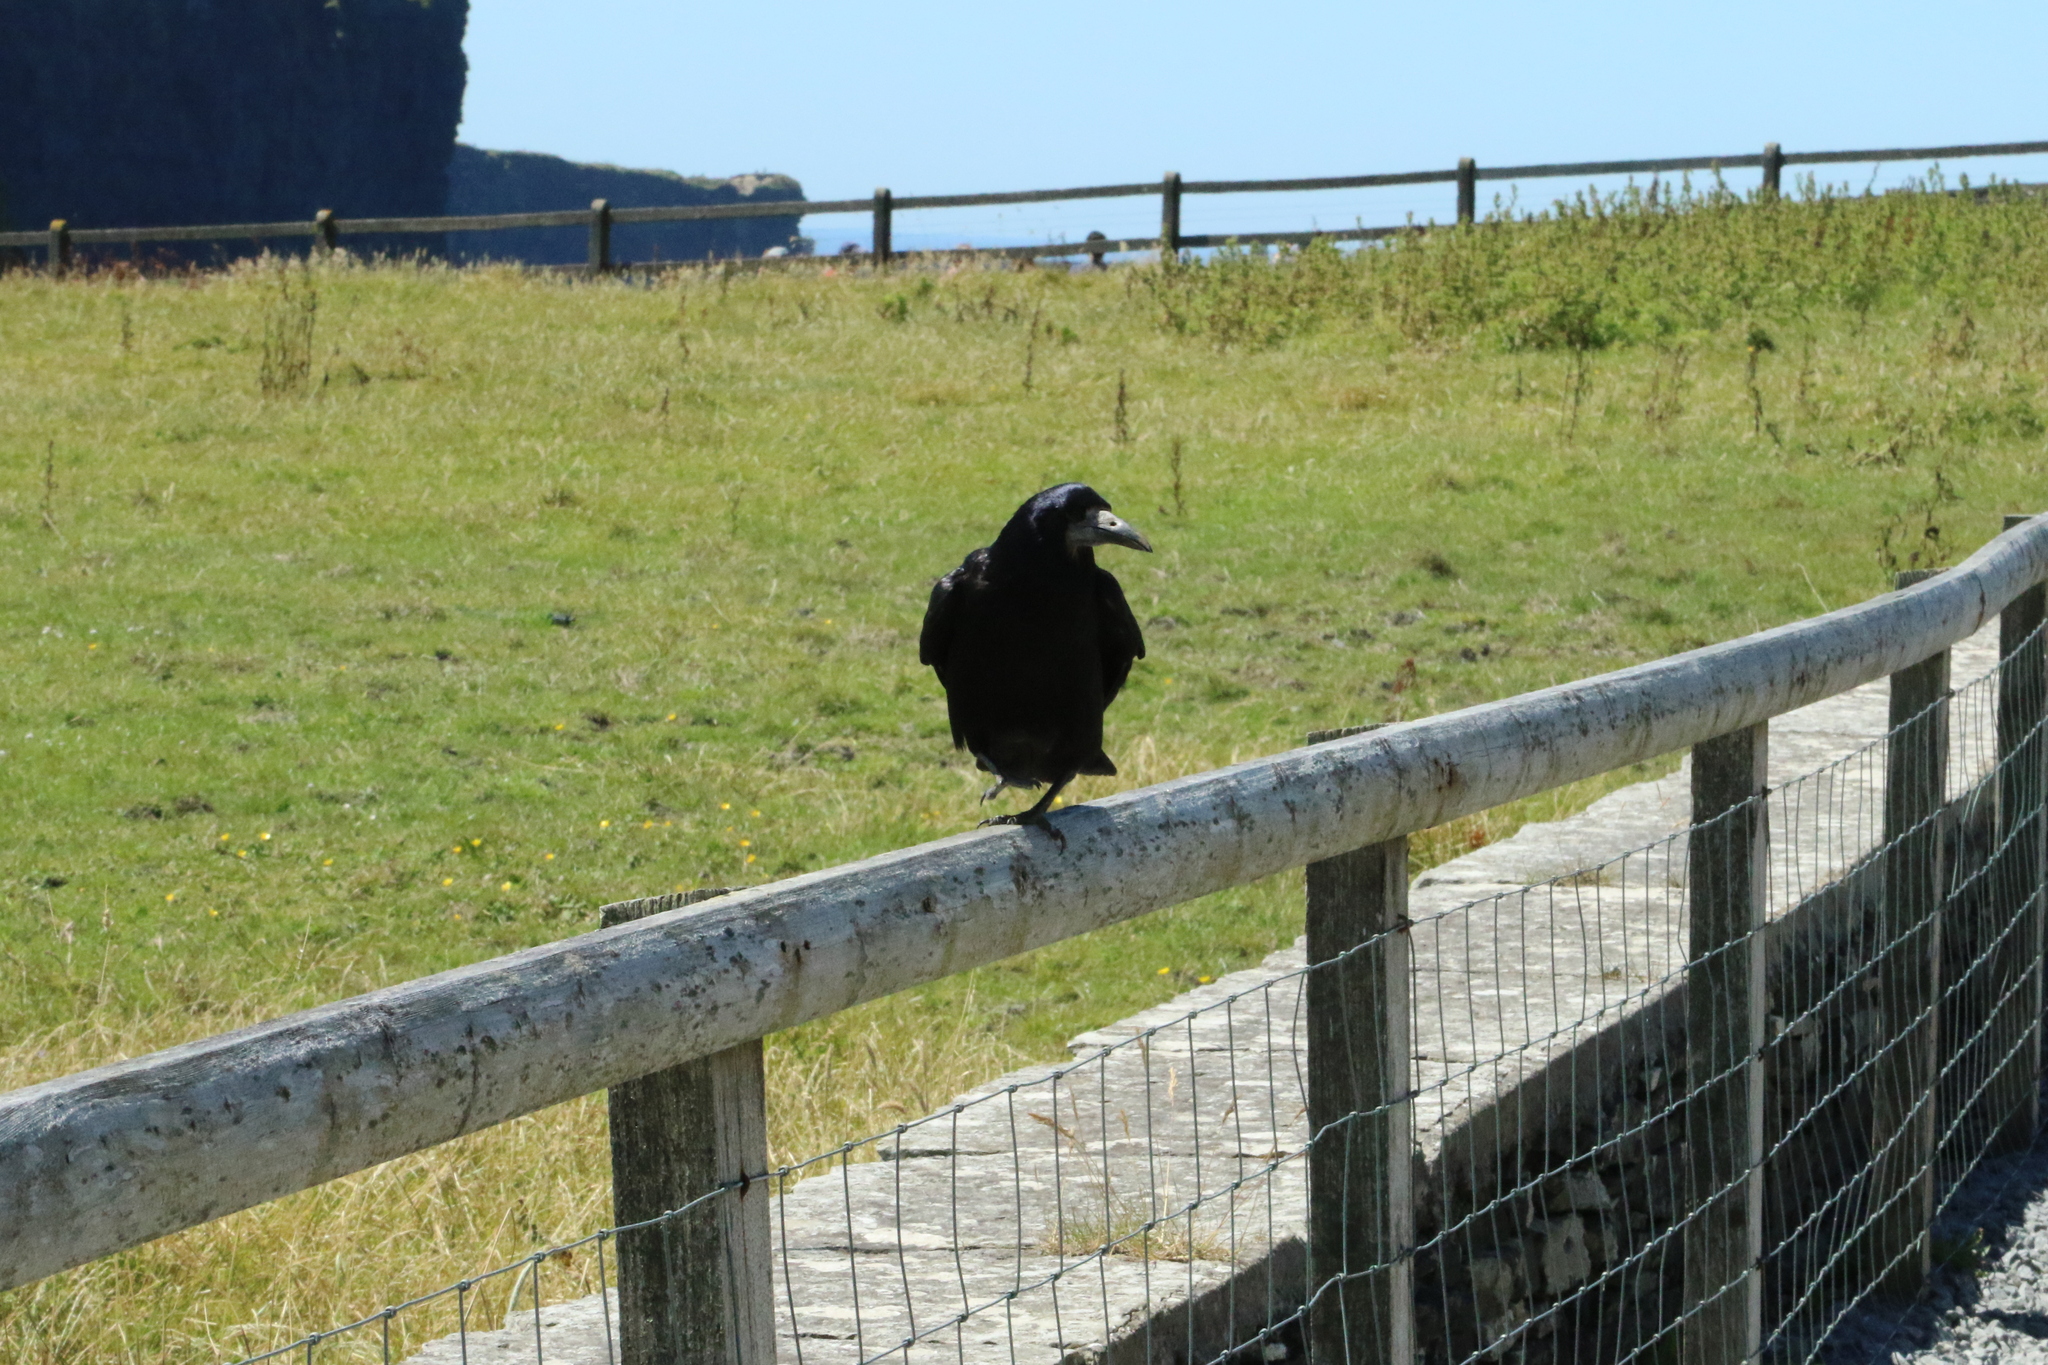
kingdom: Animalia
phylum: Chordata
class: Aves
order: Passeriformes
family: Corvidae
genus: Corvus
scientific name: Corvus frugilegus
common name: Rook
